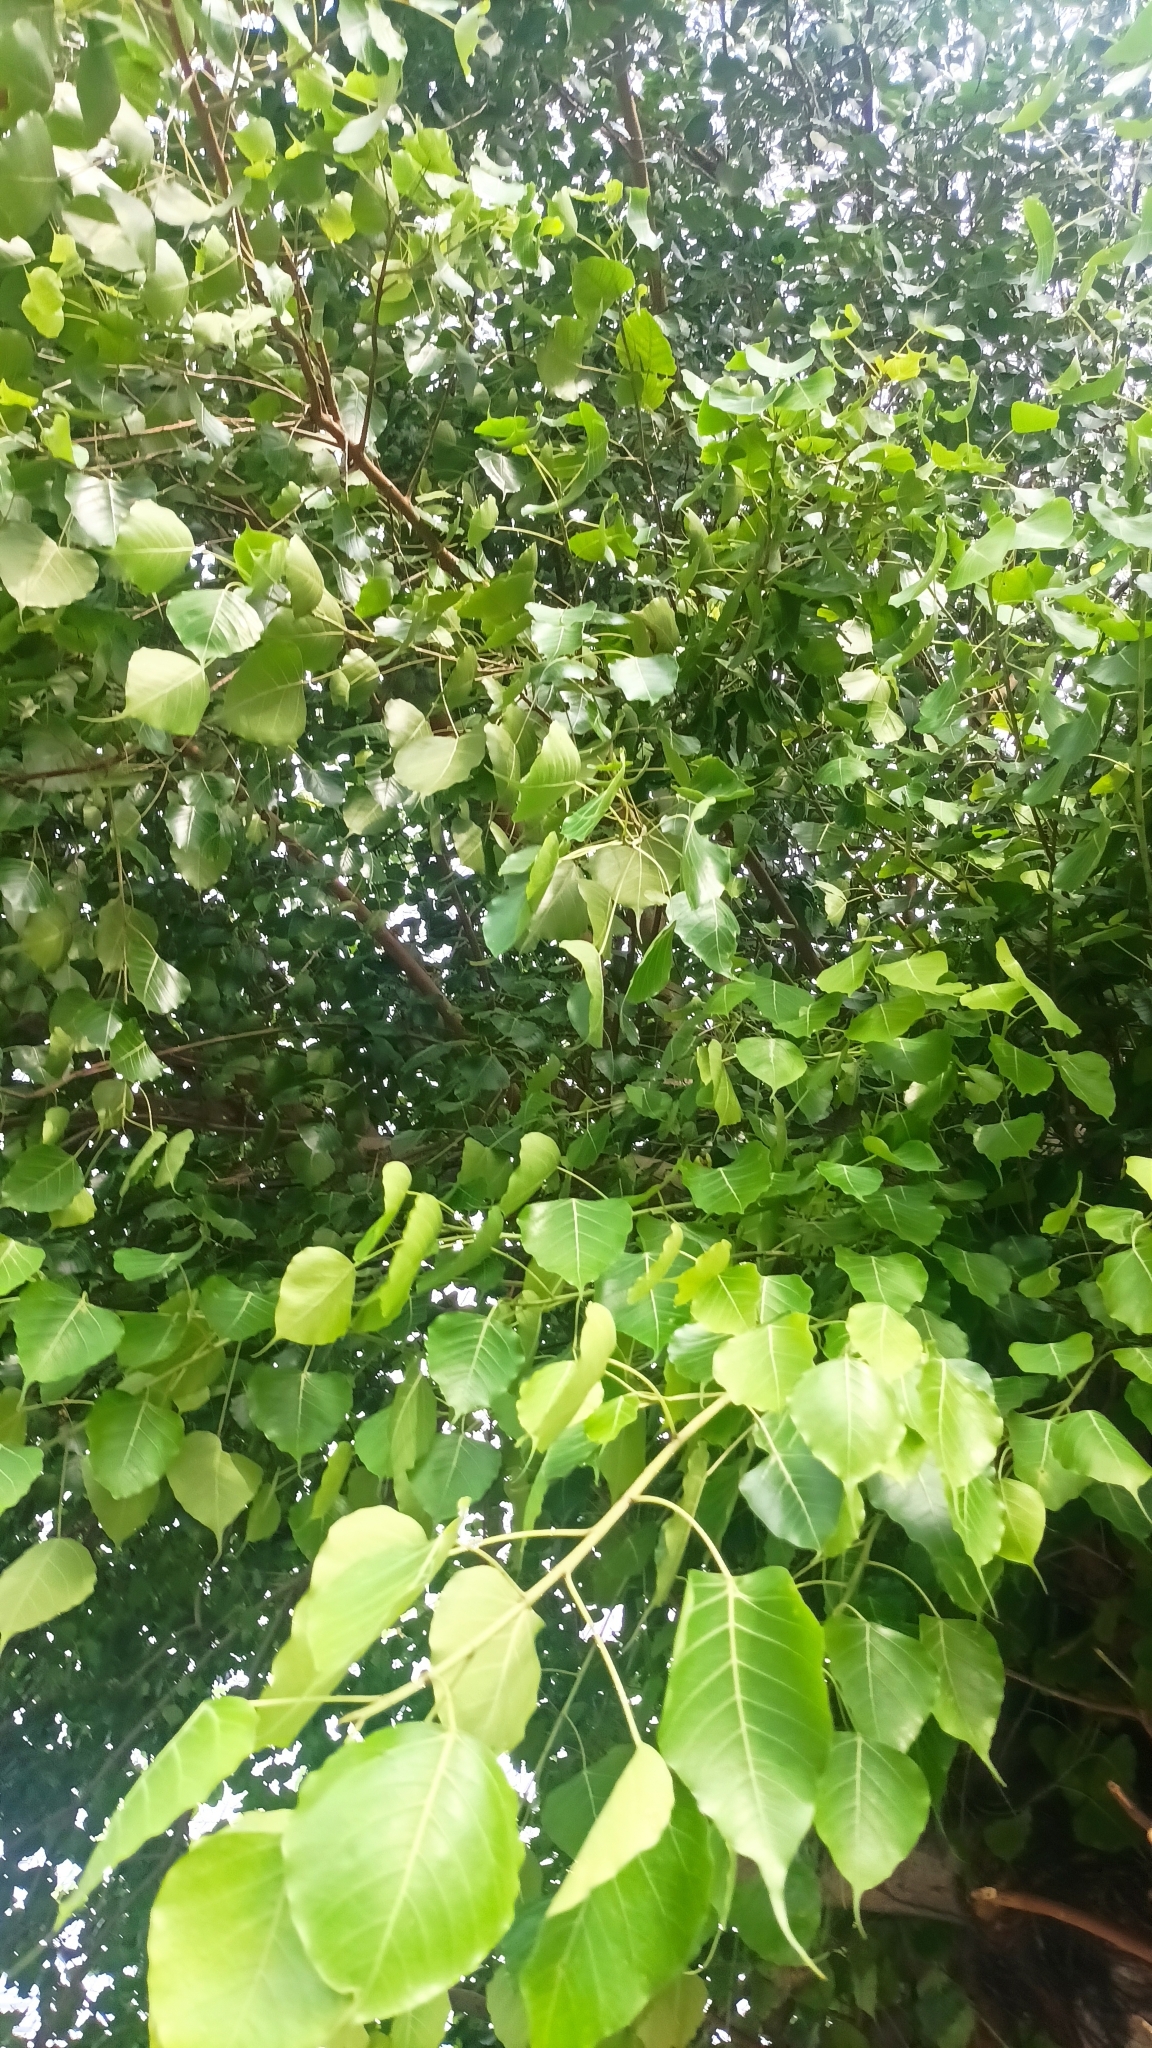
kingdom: Plantae
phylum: Tracheophyta
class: Magnoliopsida
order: Rosales
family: Moraceae
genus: Ficus
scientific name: Ficus religiosa
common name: Bodhi tree
